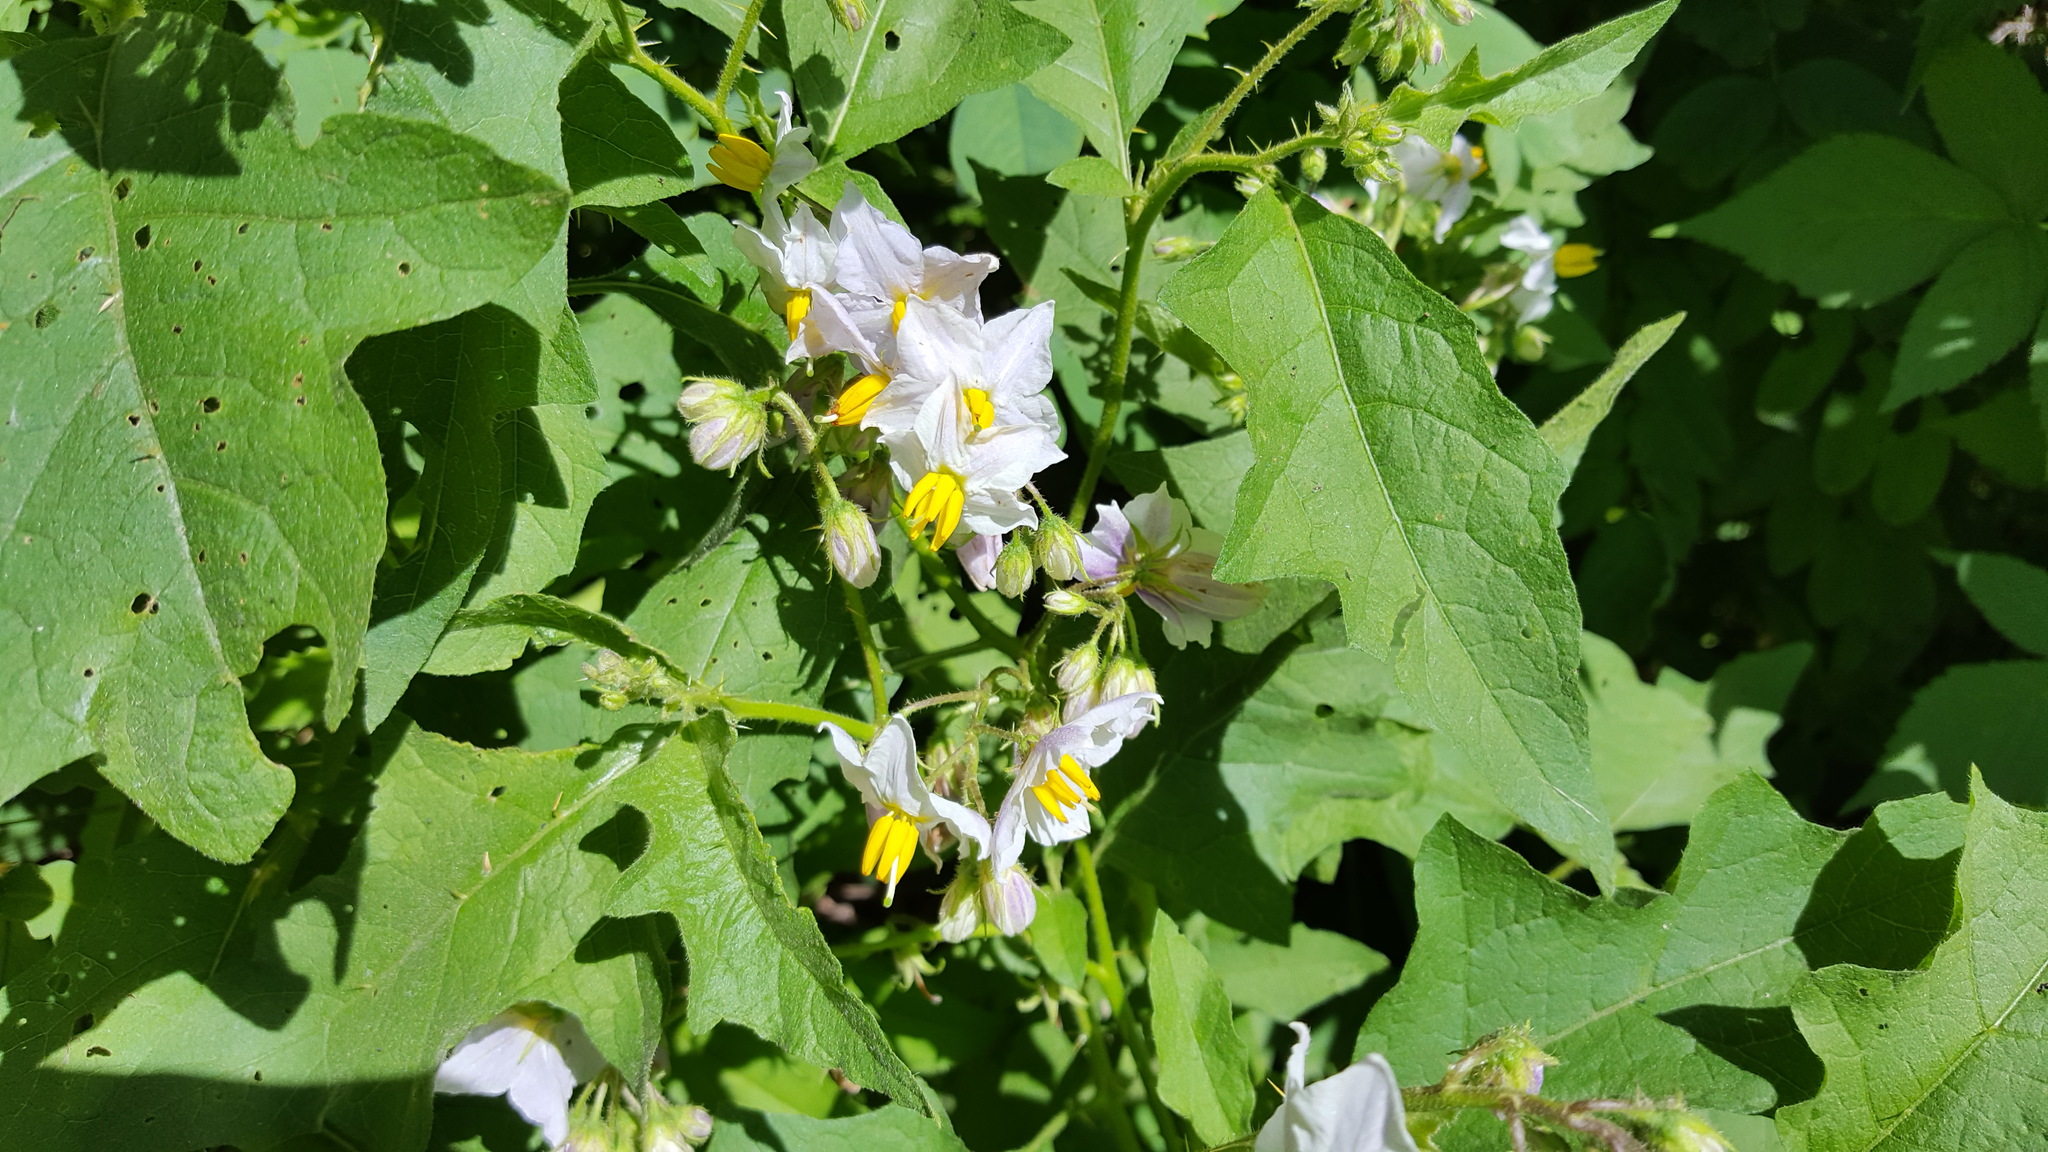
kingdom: Plantae
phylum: Tracheophyta
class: Magnoliopsida
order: Solanales
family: Solanaceae
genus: Solanum
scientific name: Solanum carolinense
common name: Horse-nettle
